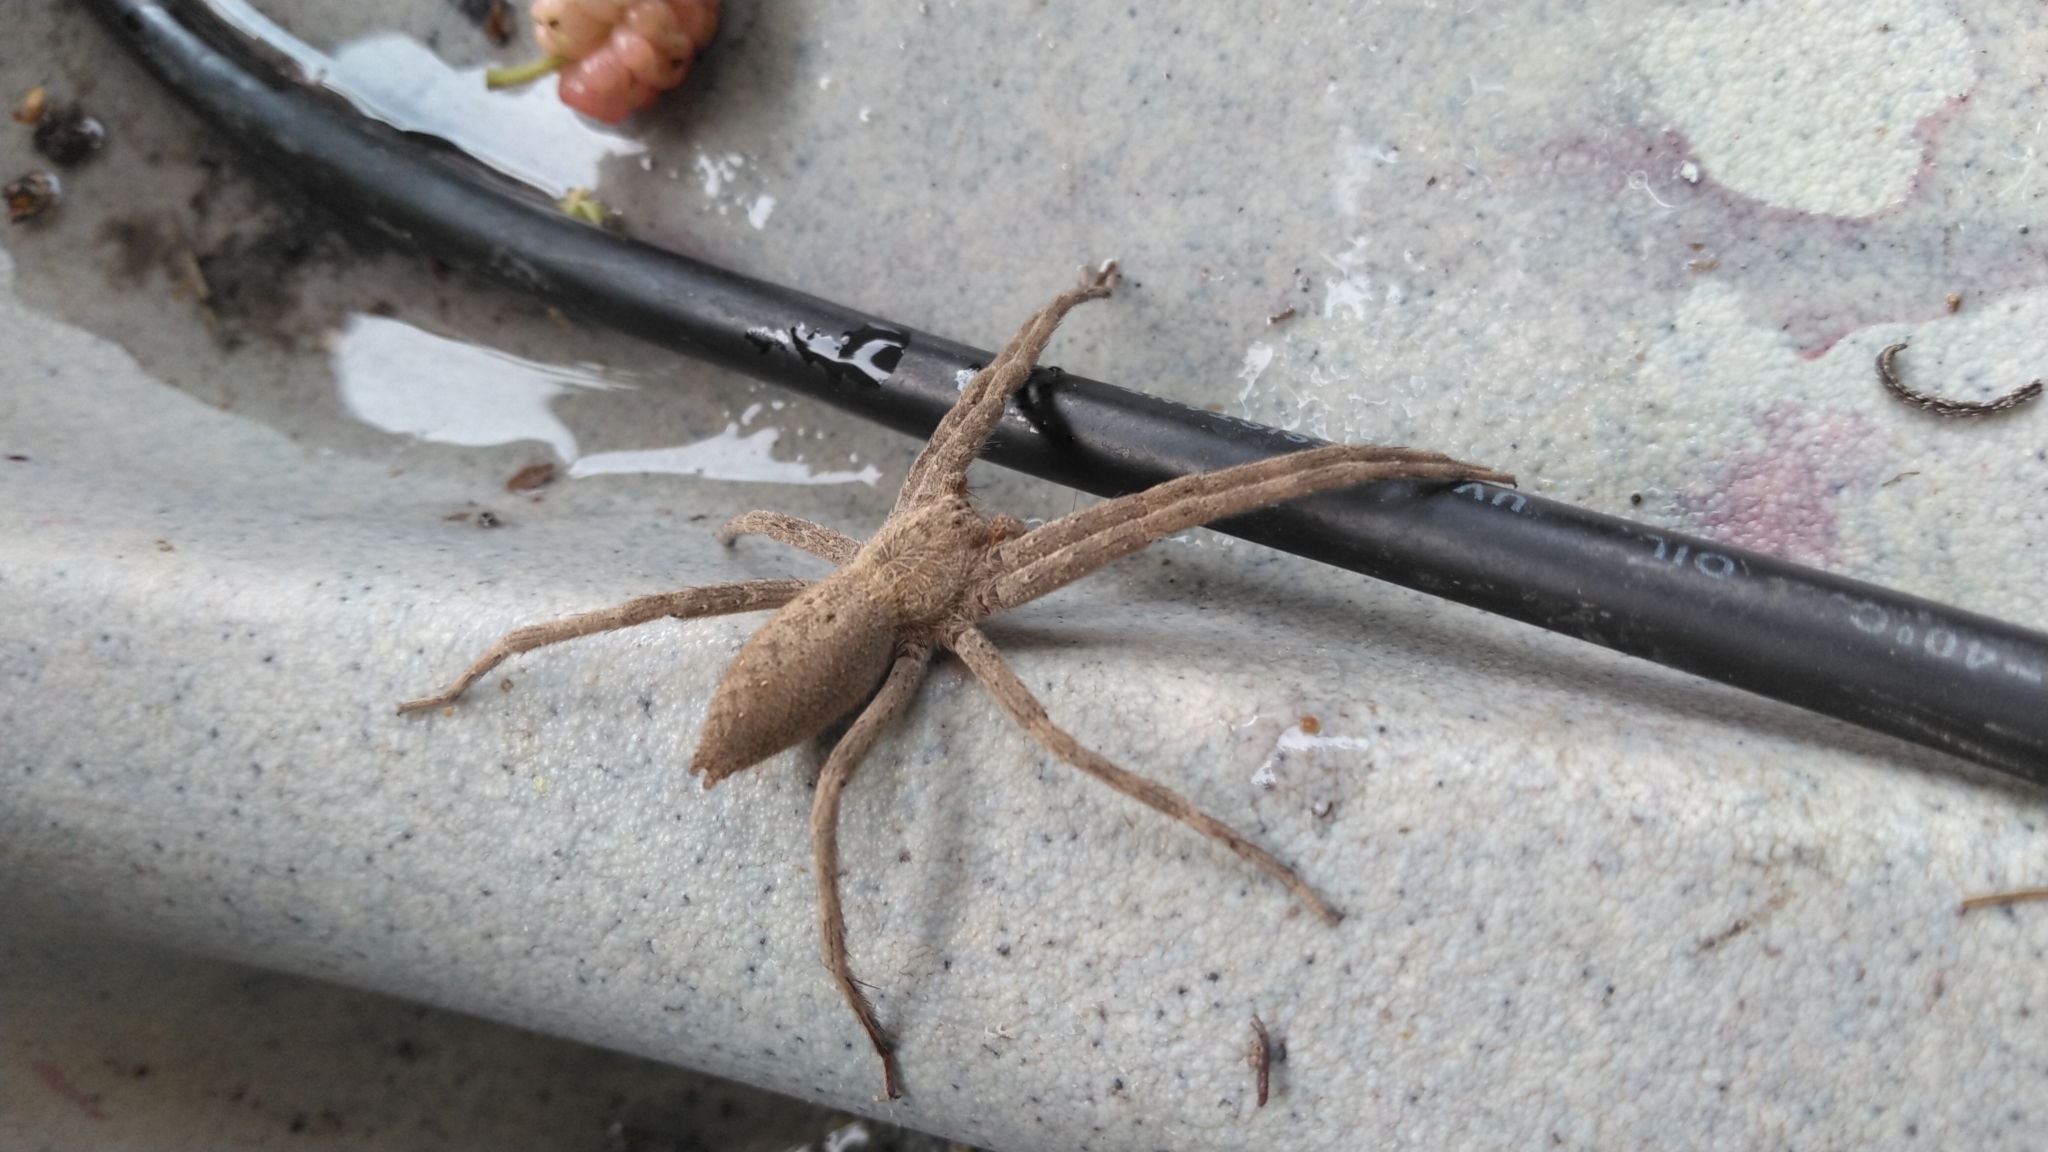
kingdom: Animalia
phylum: Arthropoda
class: Arachnida
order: Araneae
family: Pisauridae
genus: Pisaurina
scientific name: Pisaurina mira
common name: American nursery web spider
